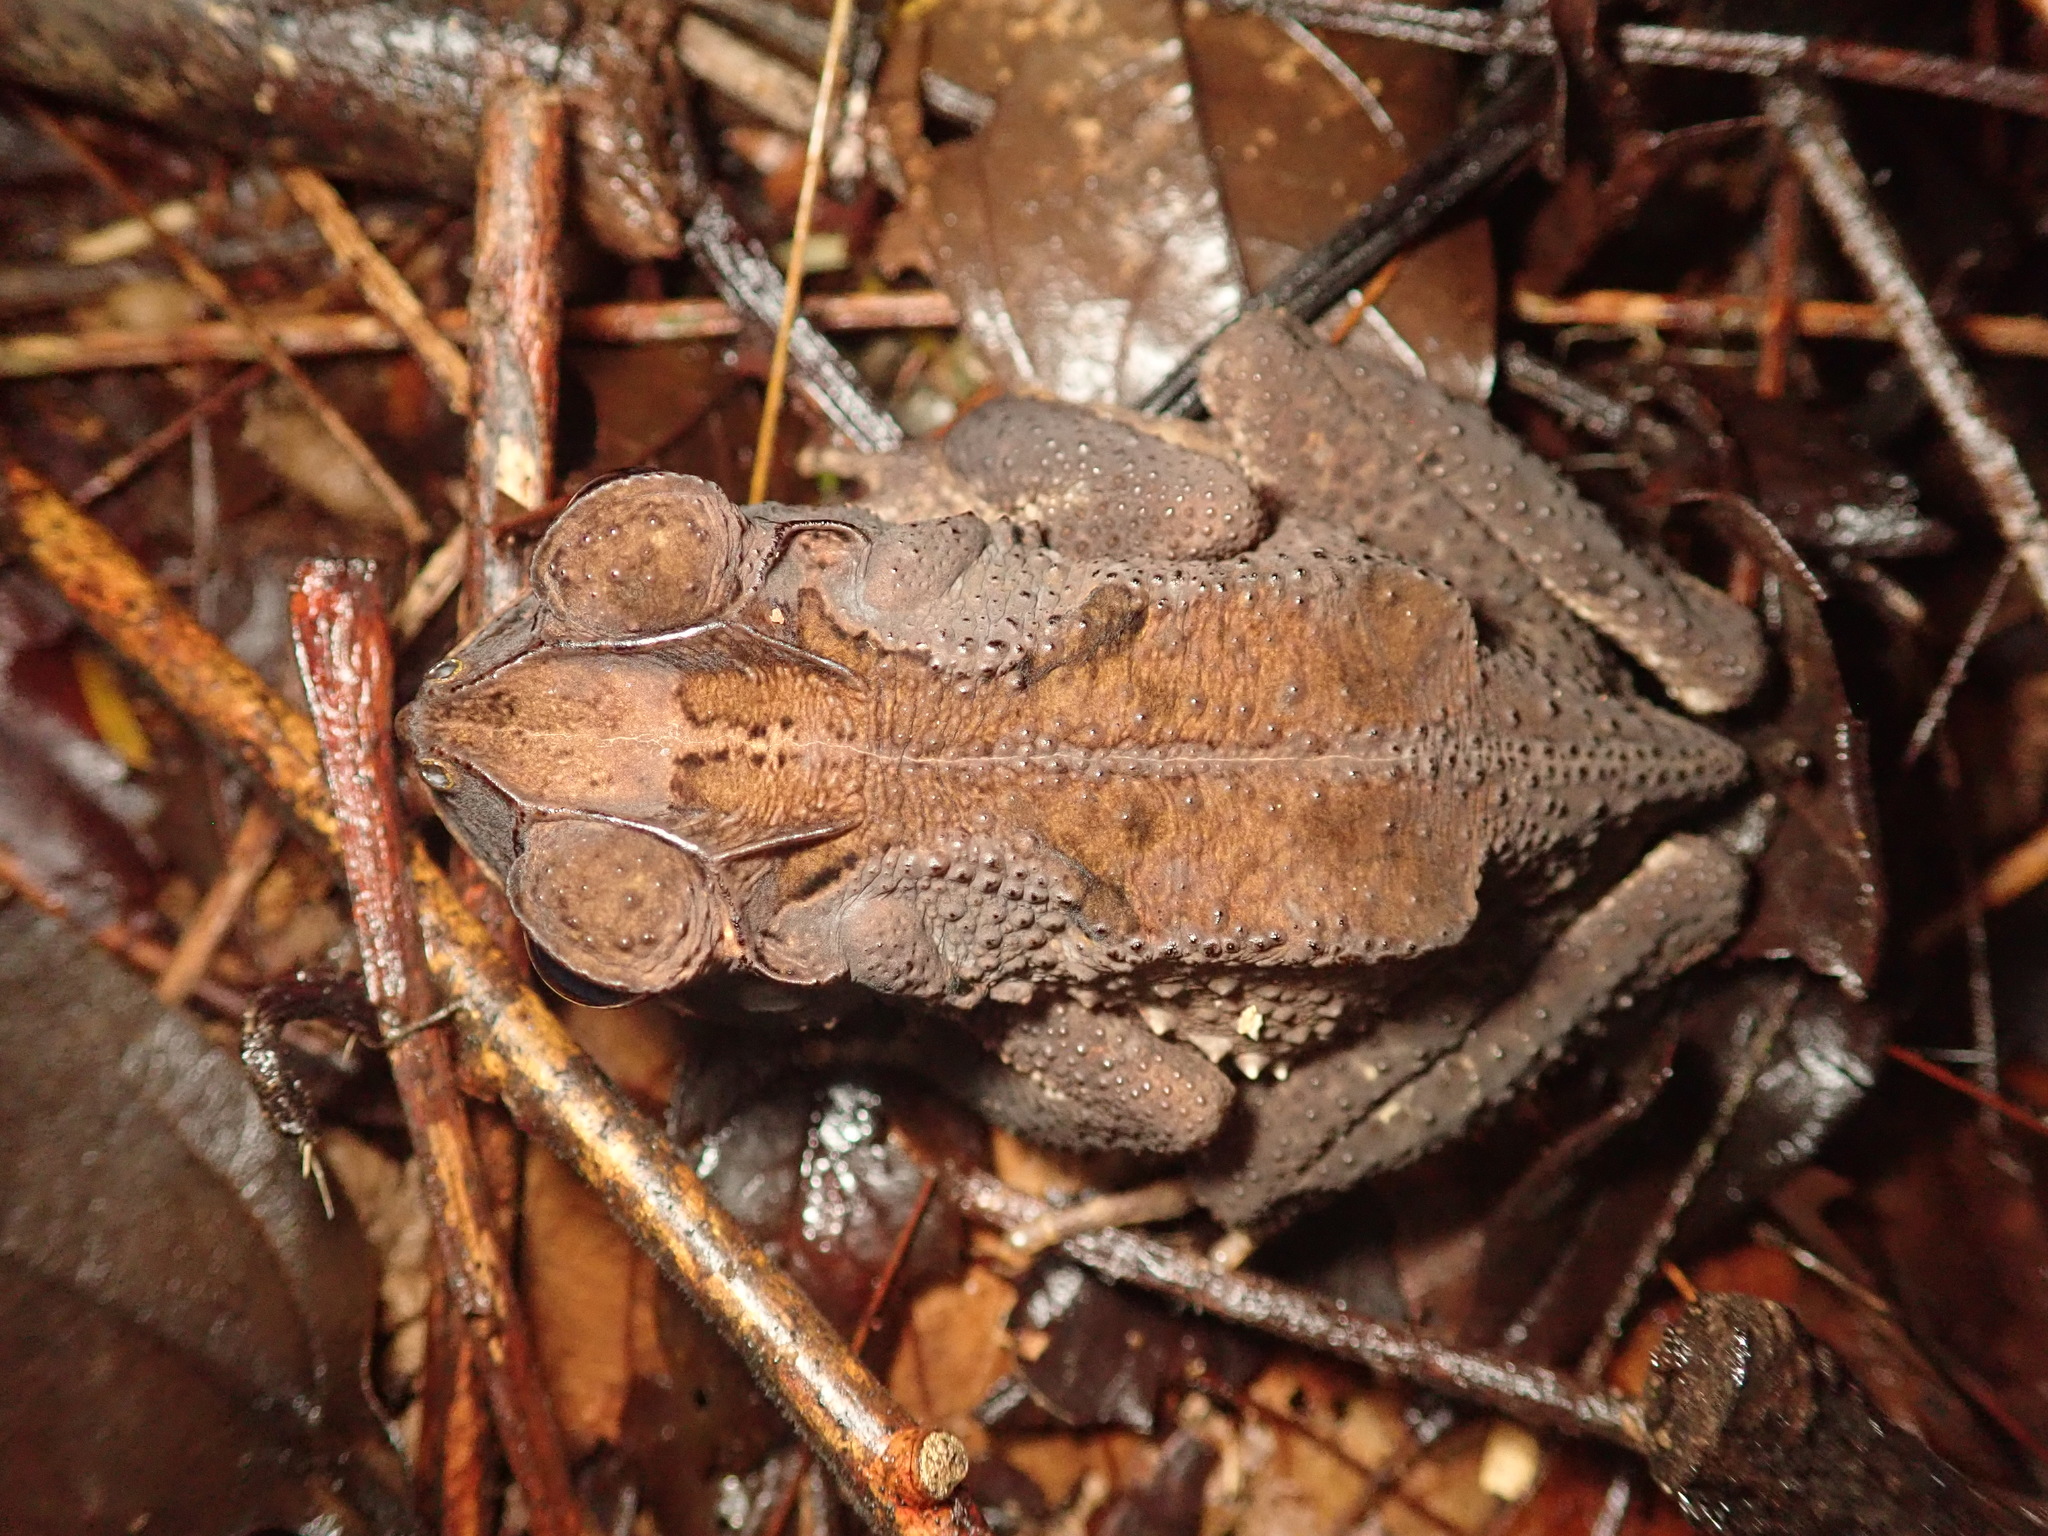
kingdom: Animalia
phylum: Chordata
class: Amphibia
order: Anura
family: Bufonidae
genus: Incilius
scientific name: Incilius melanochlorus
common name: Dark green toad
